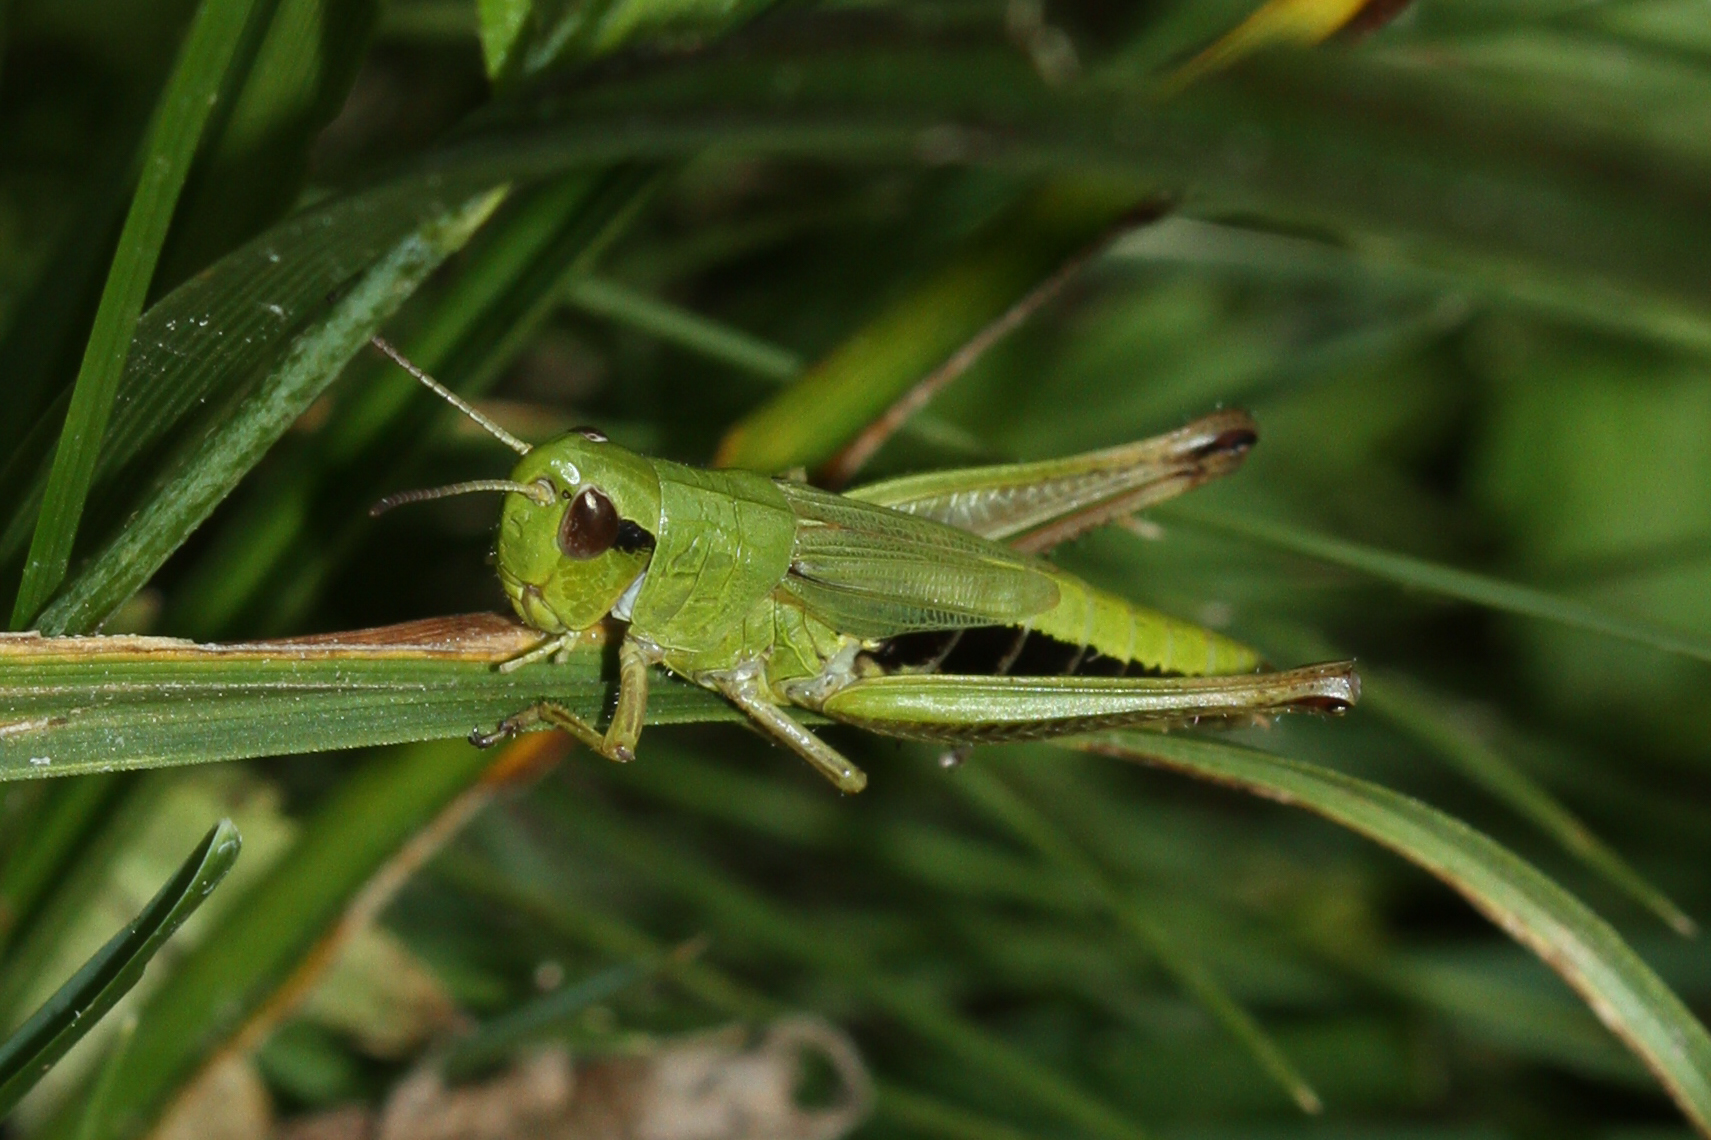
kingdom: Animalia
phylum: Arthropoda
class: Insecta
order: Orthoptera
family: Acrididae
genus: Pseudochorthippus
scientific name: Pseudochorthippus parallelus
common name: Meadow grasshopper
